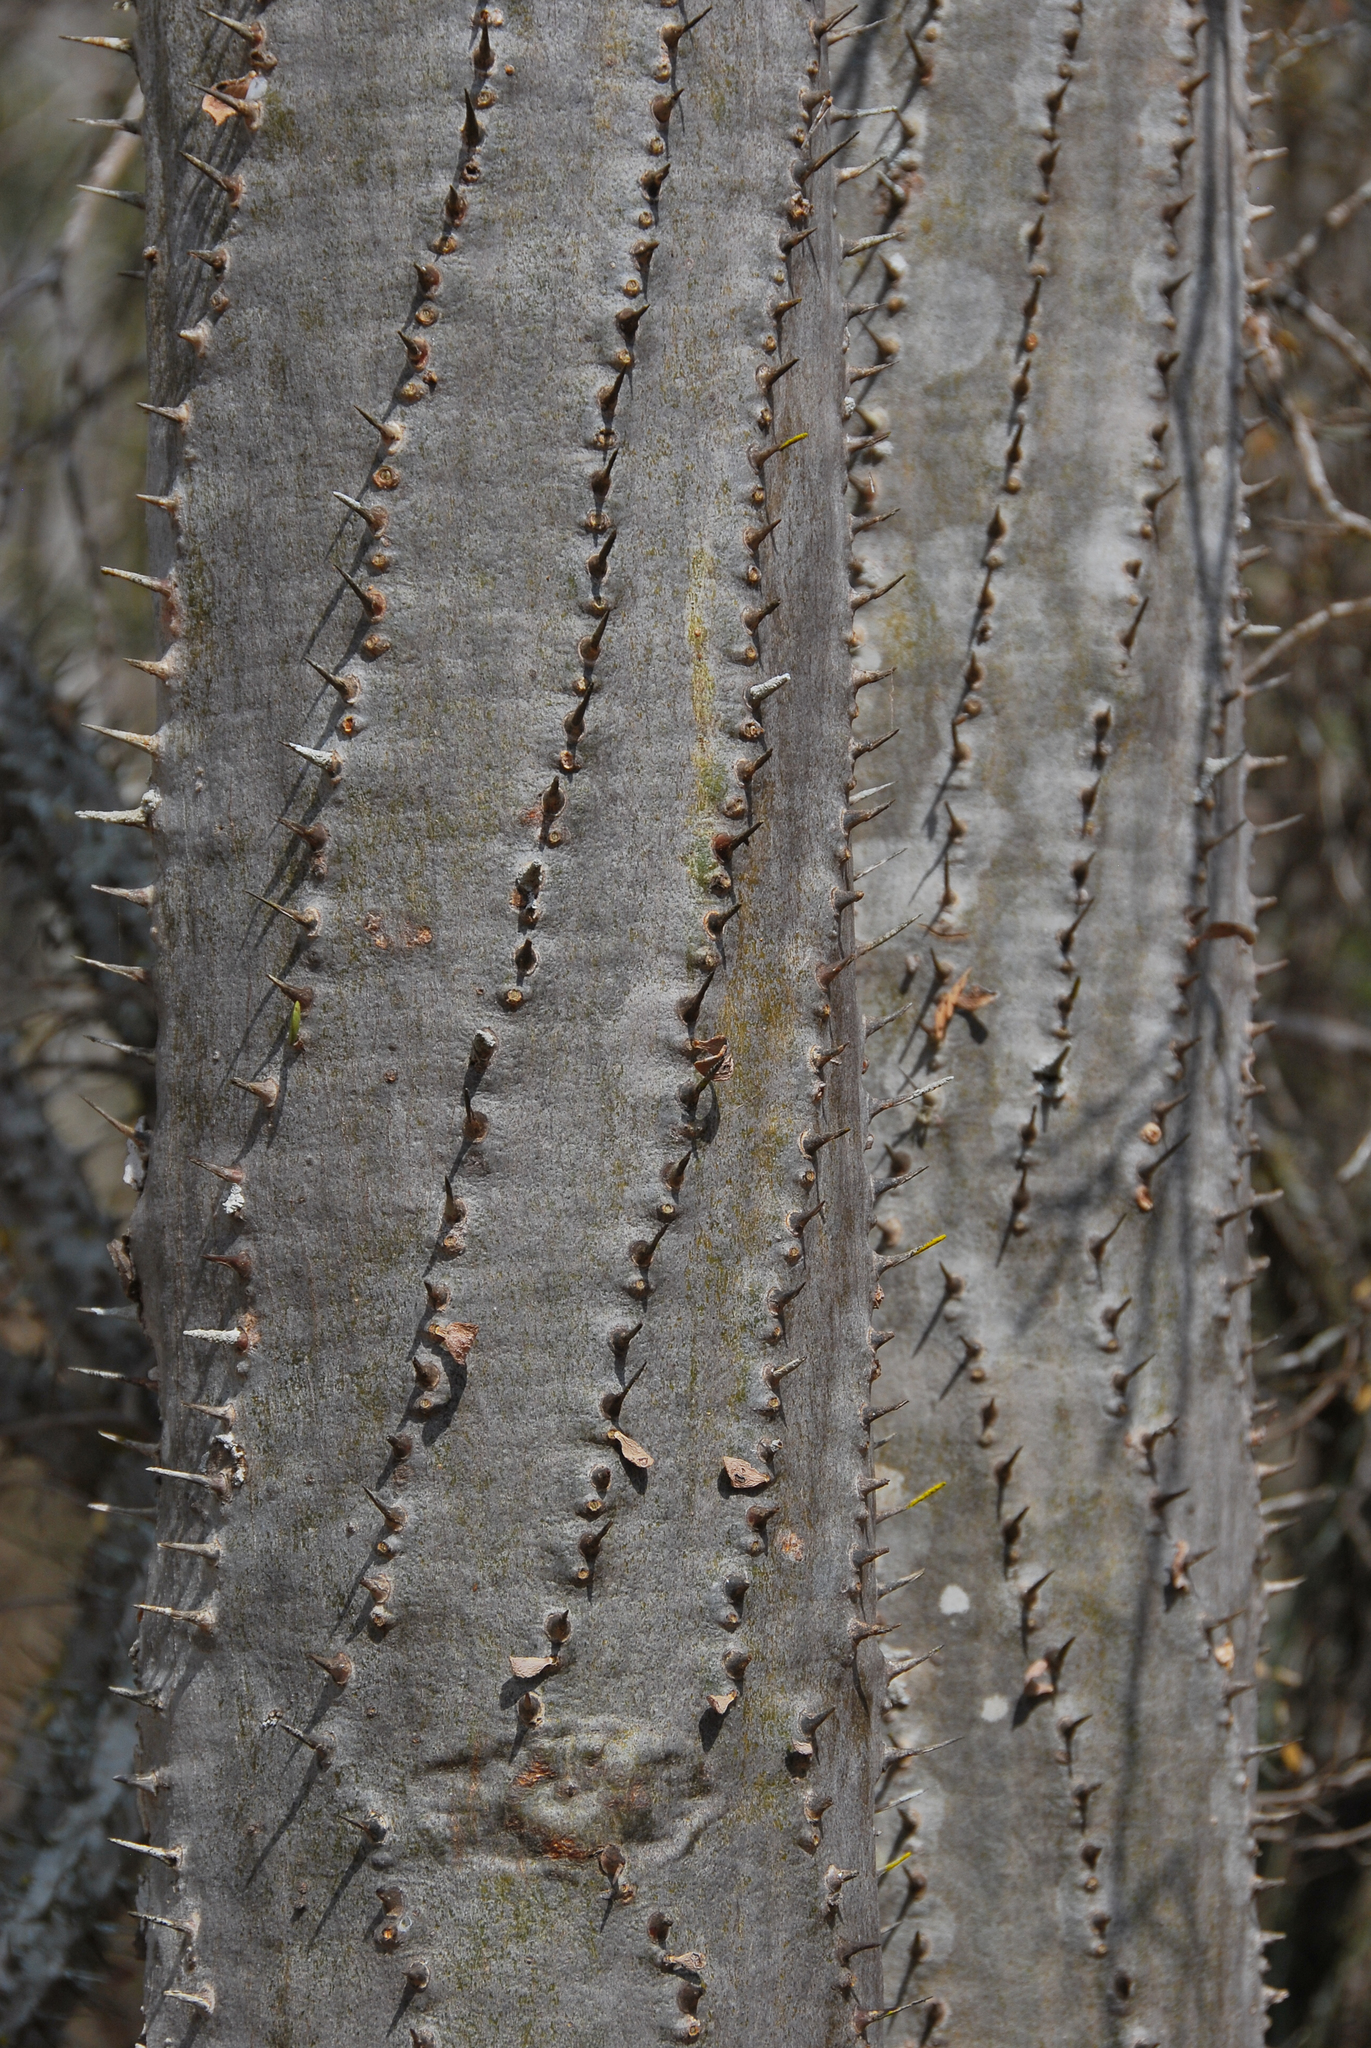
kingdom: Plantae
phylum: Tracheophyta
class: Magnoliopsida
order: Caryophyllales
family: Didiereaceae
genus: Alluaudia
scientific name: Alluaudia procera
